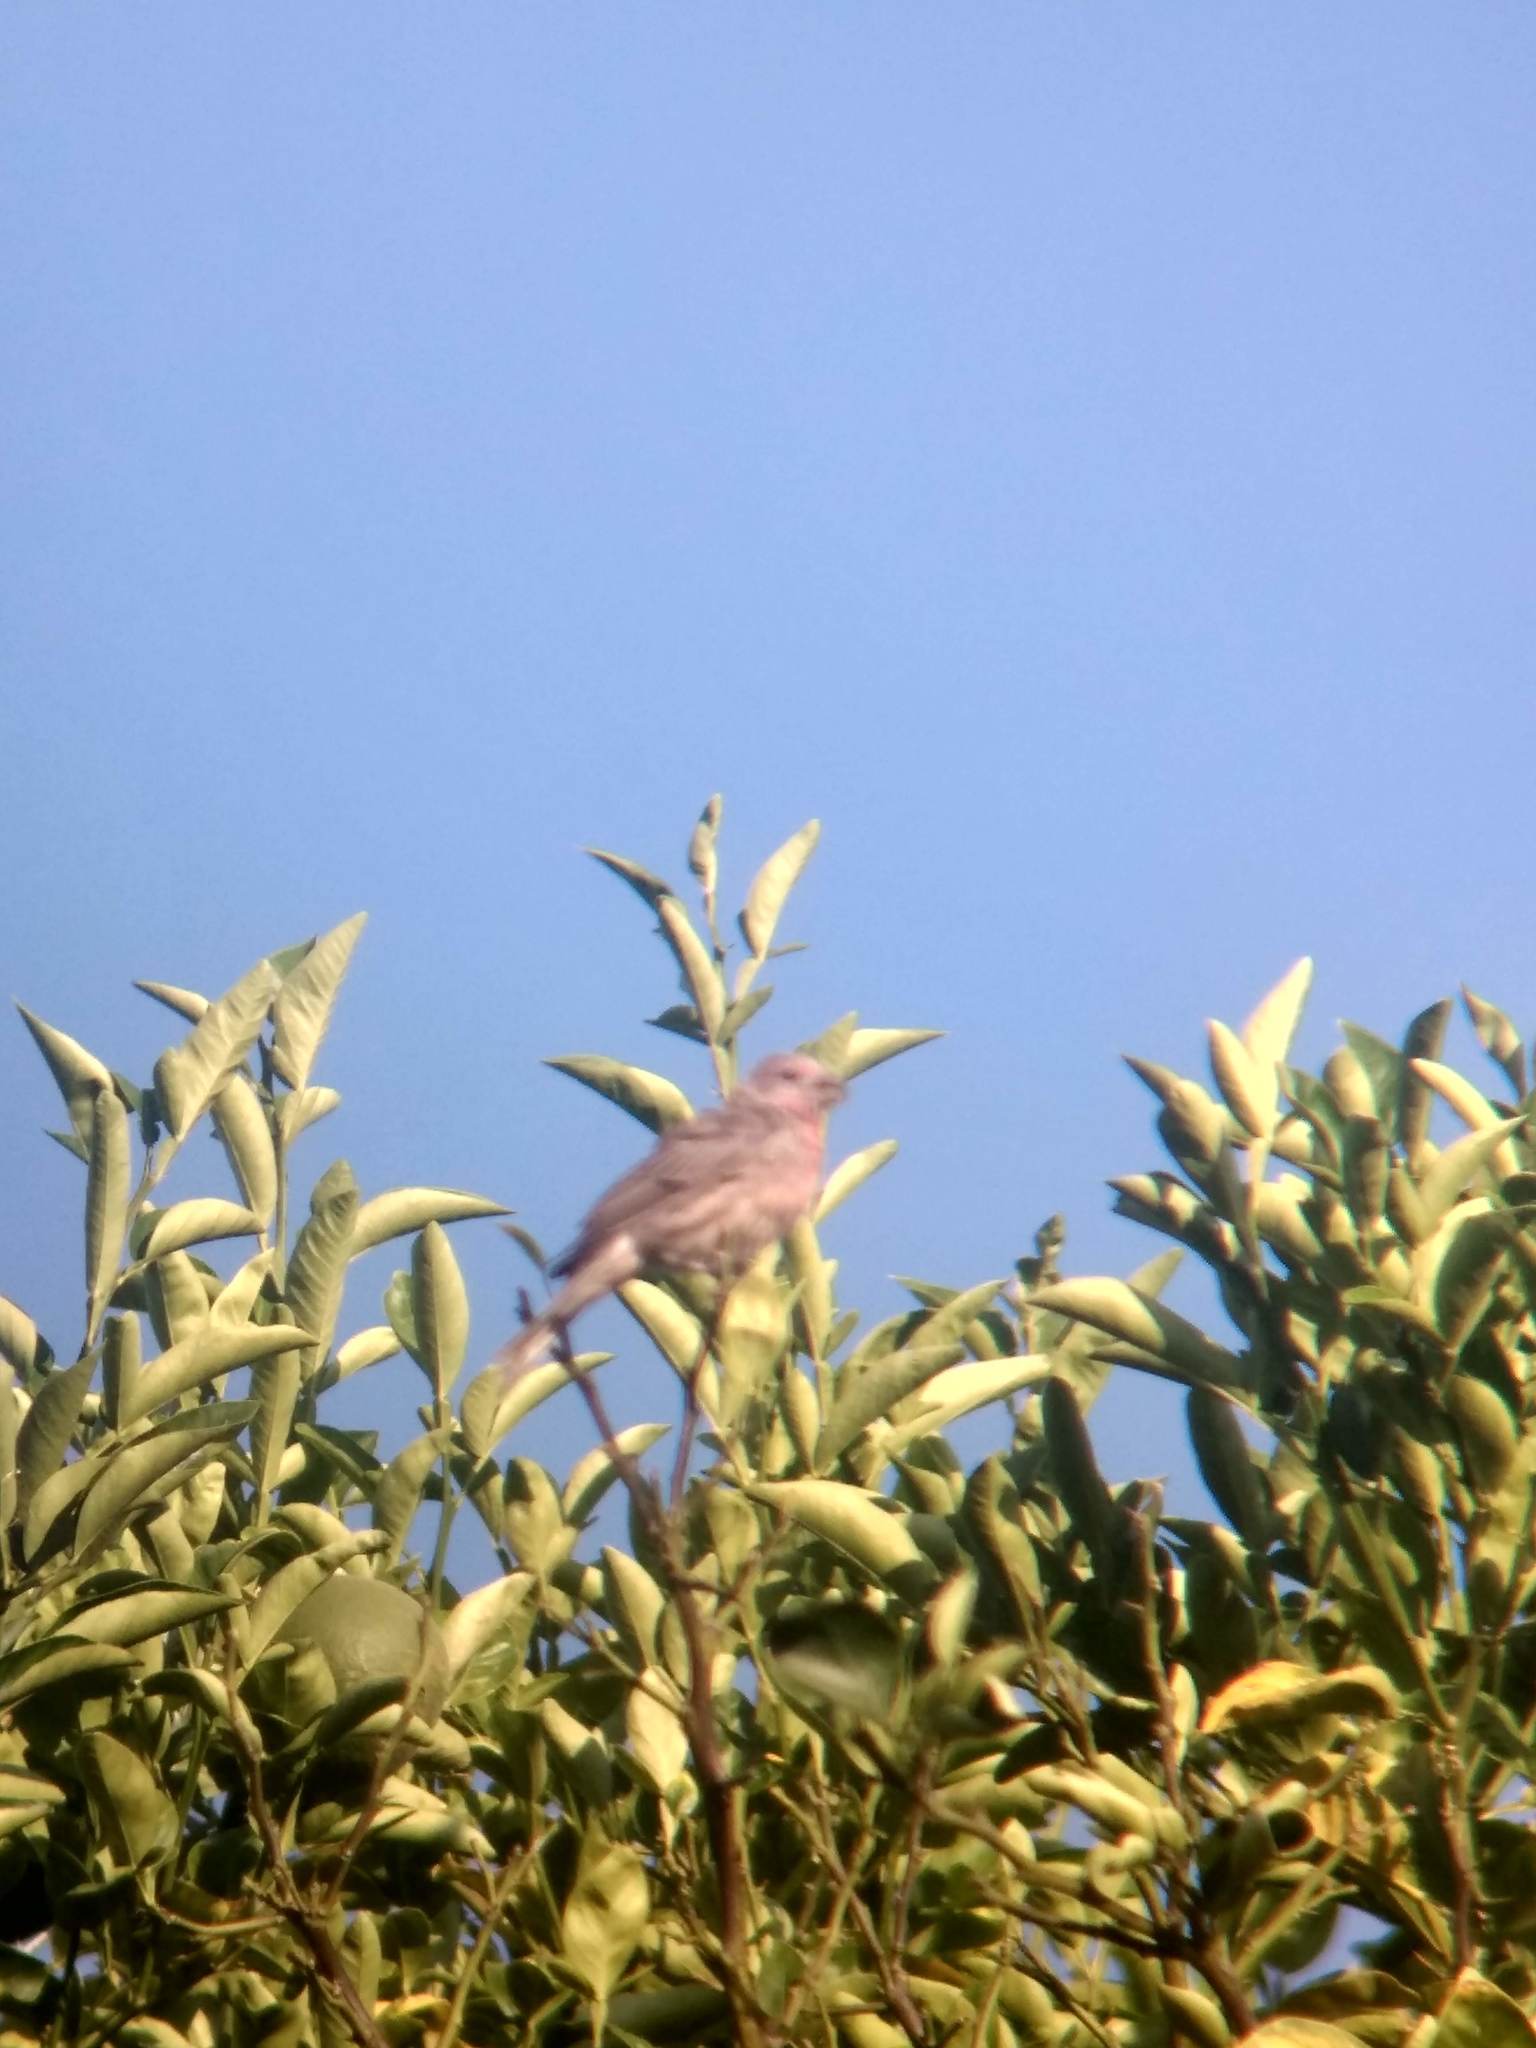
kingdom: Animalia
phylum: Chordata
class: Aves
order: Passeriformes
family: Fringillidae
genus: Haemorhous
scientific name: Haemorhous mexicanus
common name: House finch
